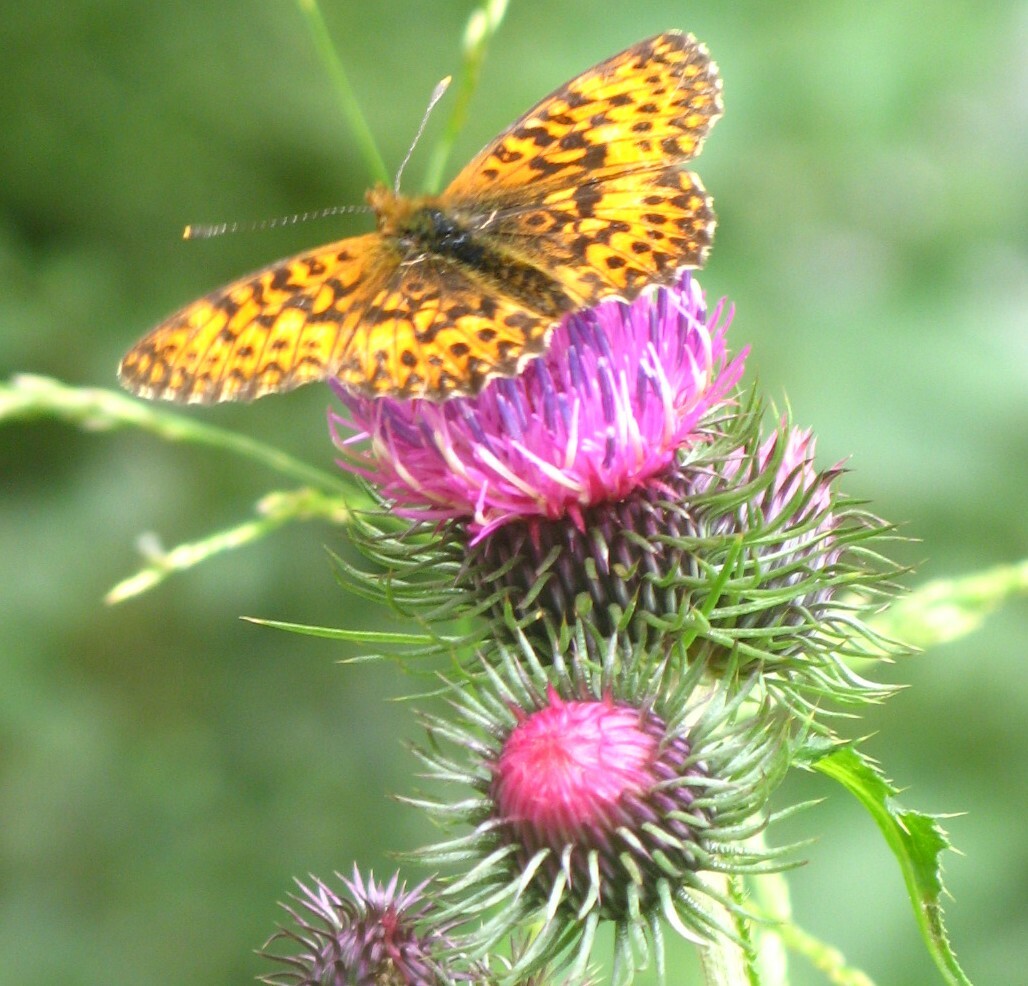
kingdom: Animalia
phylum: Arthropoda
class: Insecta
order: Lepidoptera
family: Nymphalidae
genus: Boloria
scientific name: Boloria titania
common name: Titania's fritillary
